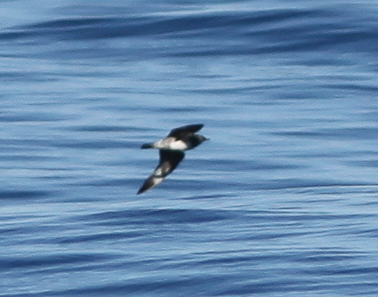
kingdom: Animalia
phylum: Chordata
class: Aves
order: Charadriiformes
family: Stercorariidae
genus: Stercorarius
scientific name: Stercorarius pomarinus
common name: Pomarine jaeger
